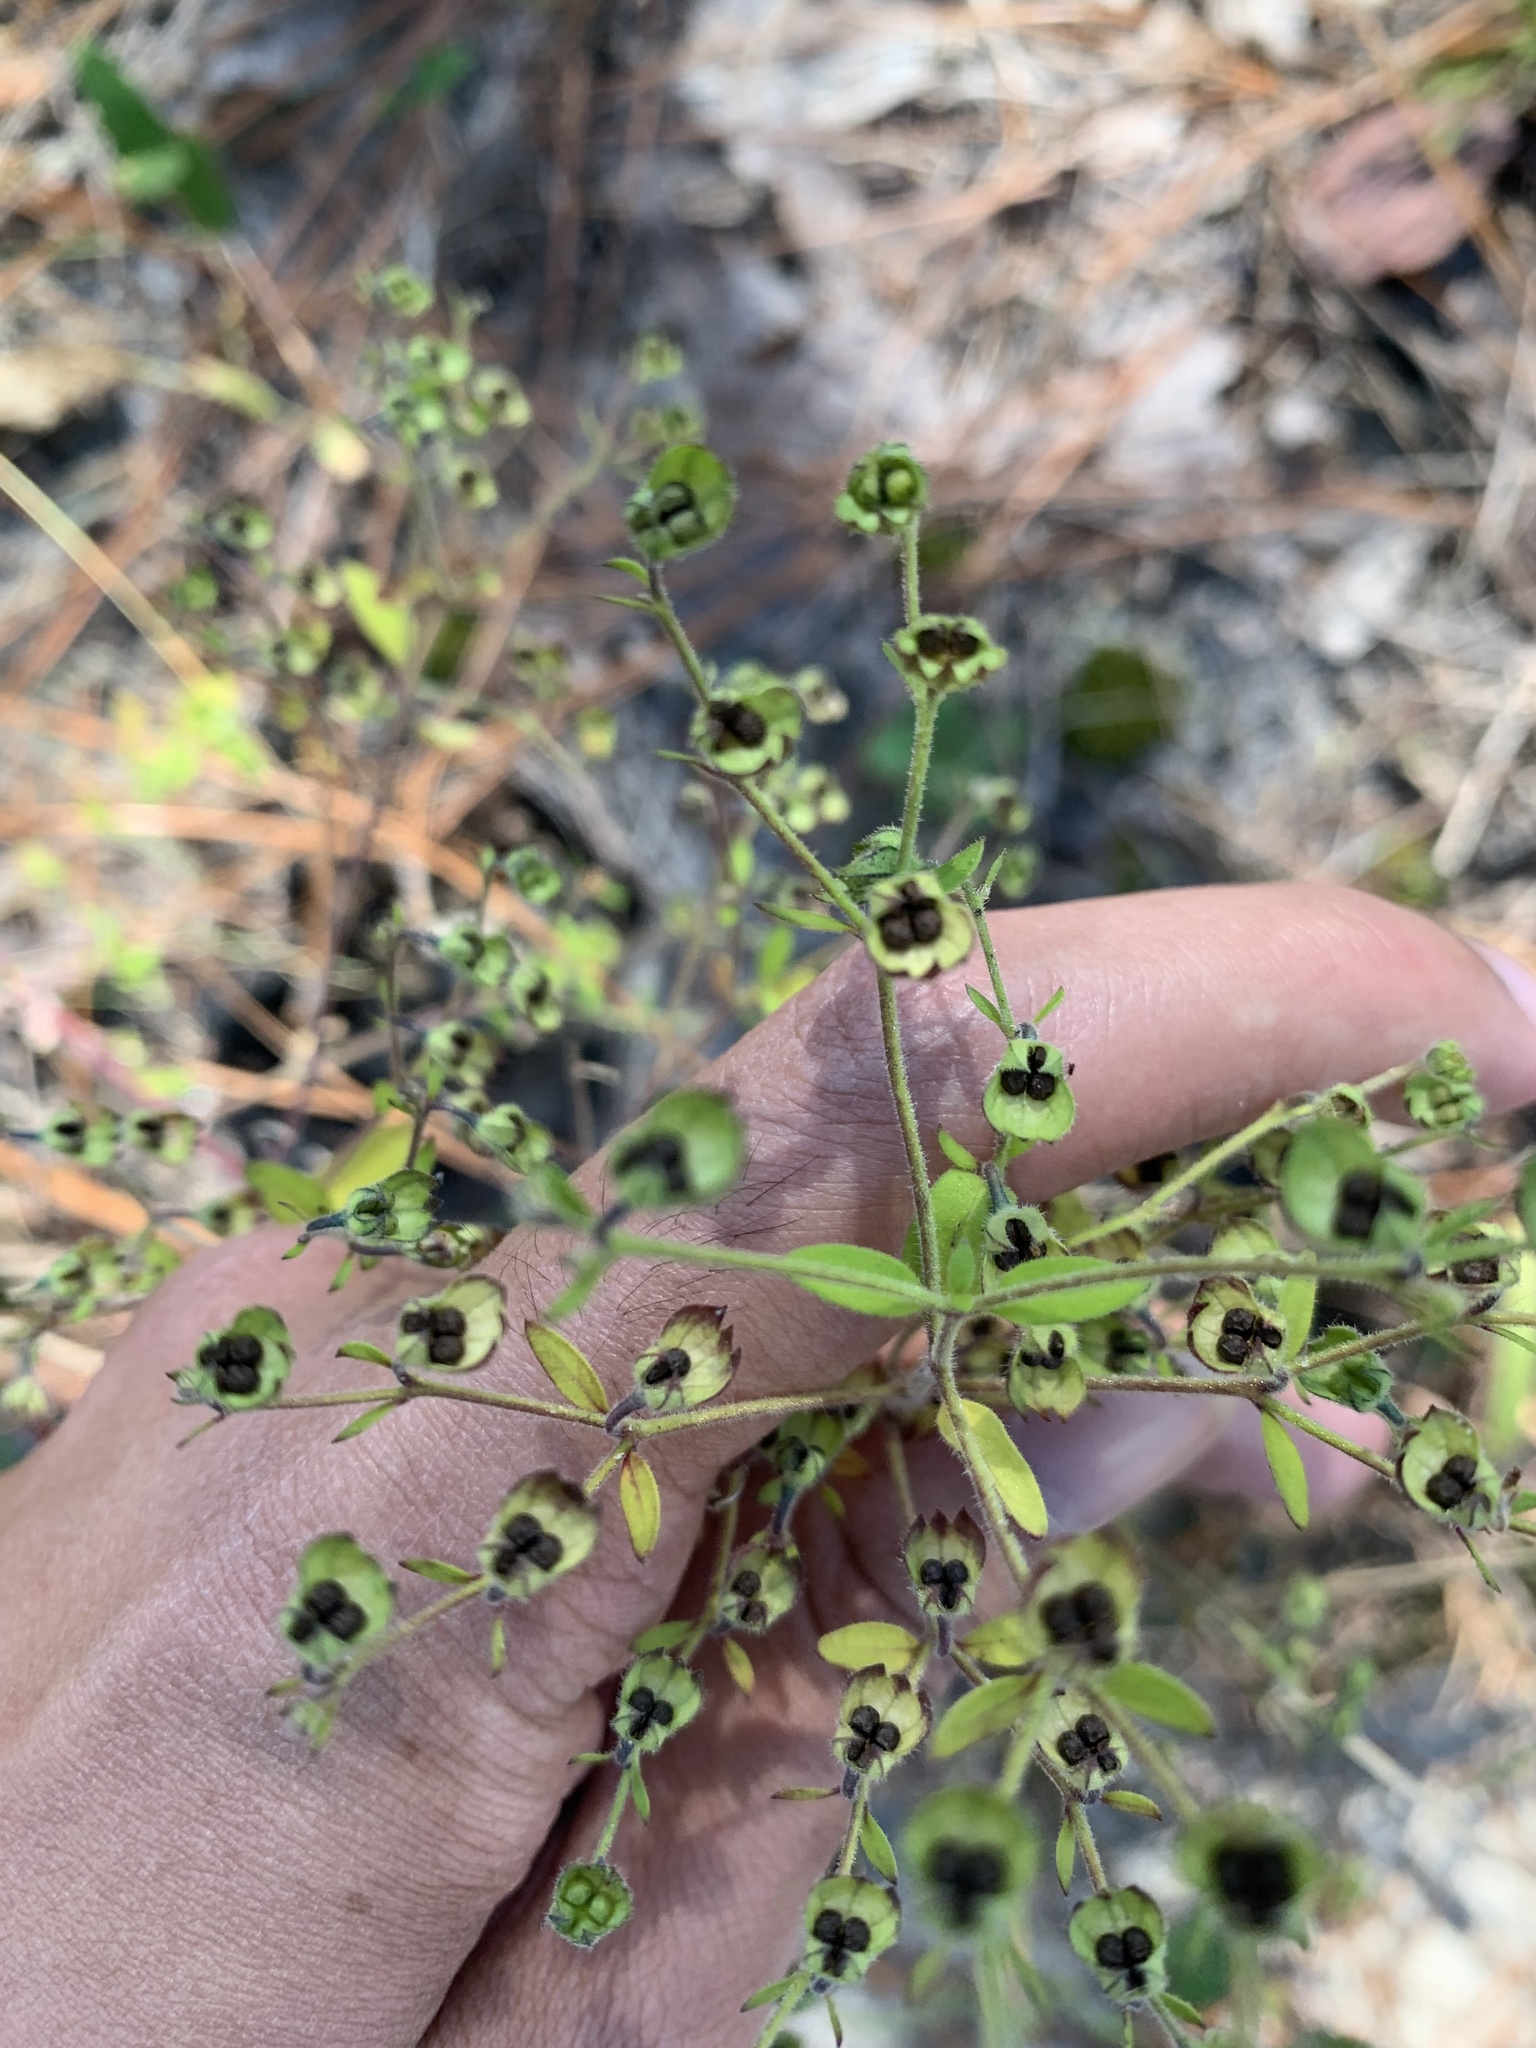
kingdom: Plantae
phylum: Tracheophyta
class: Magnoliopsida
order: Lamiales
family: Lamiaceae
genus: Trichostema
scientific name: Trichostema dichotomum
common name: Bastard pennyroyal
